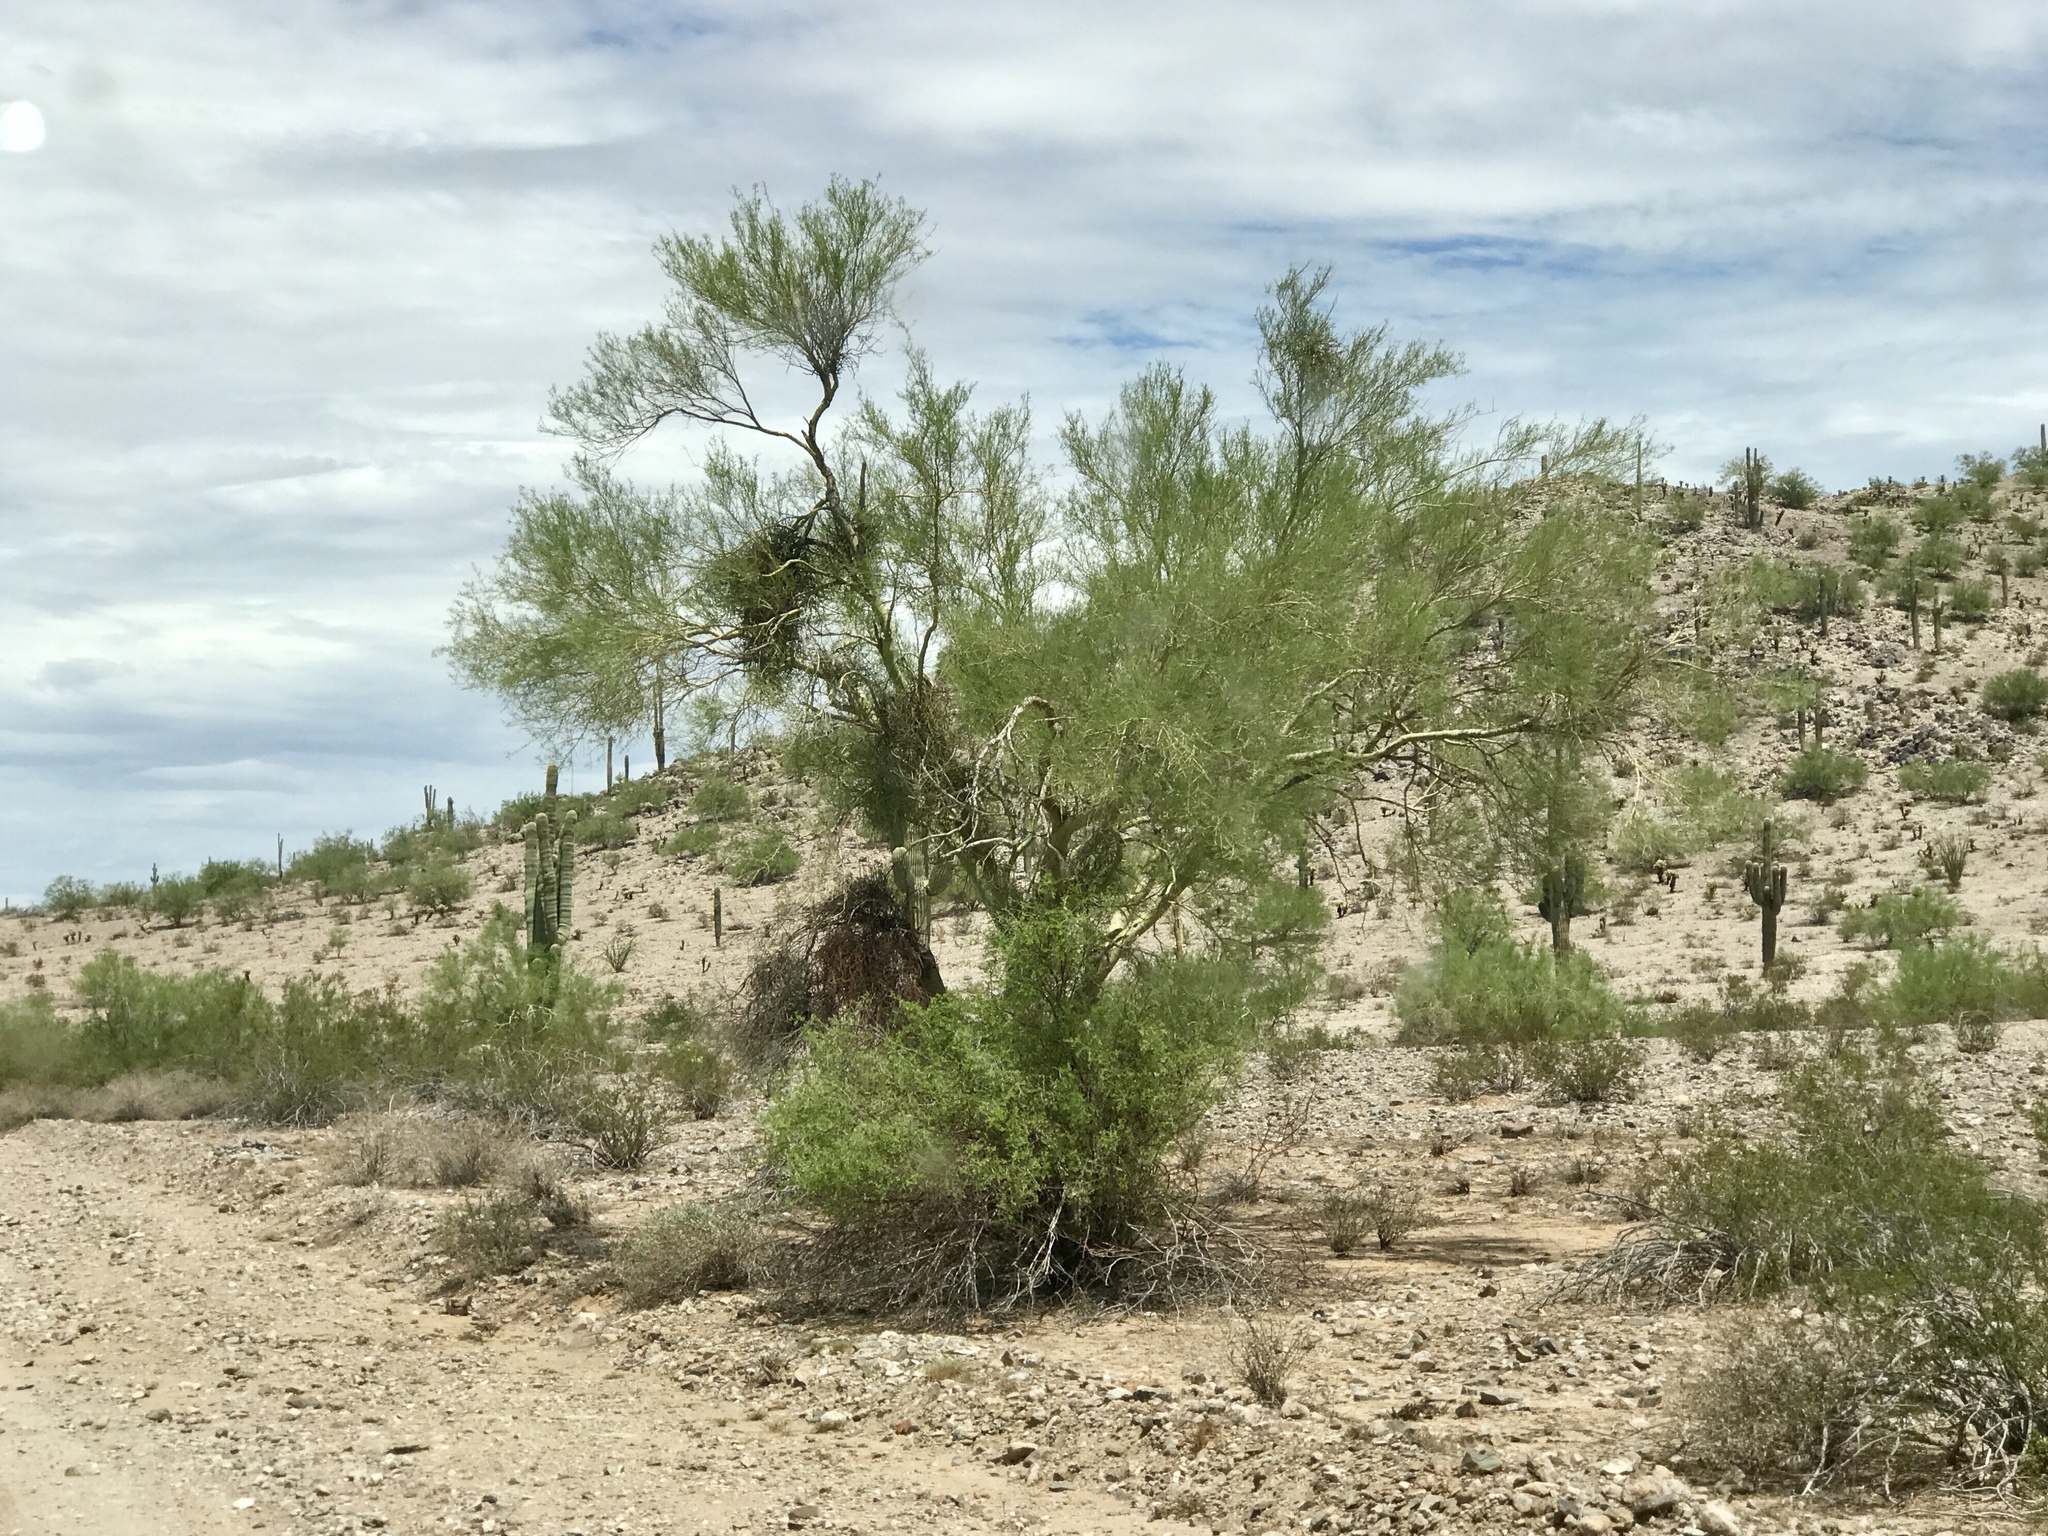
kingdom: Plantae
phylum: Tracheophyta
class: Magnoliopsida
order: Fabales
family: Fabaceae
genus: Parkinsonia
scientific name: Parkinsonia microphylla
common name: Yellow paloverde
